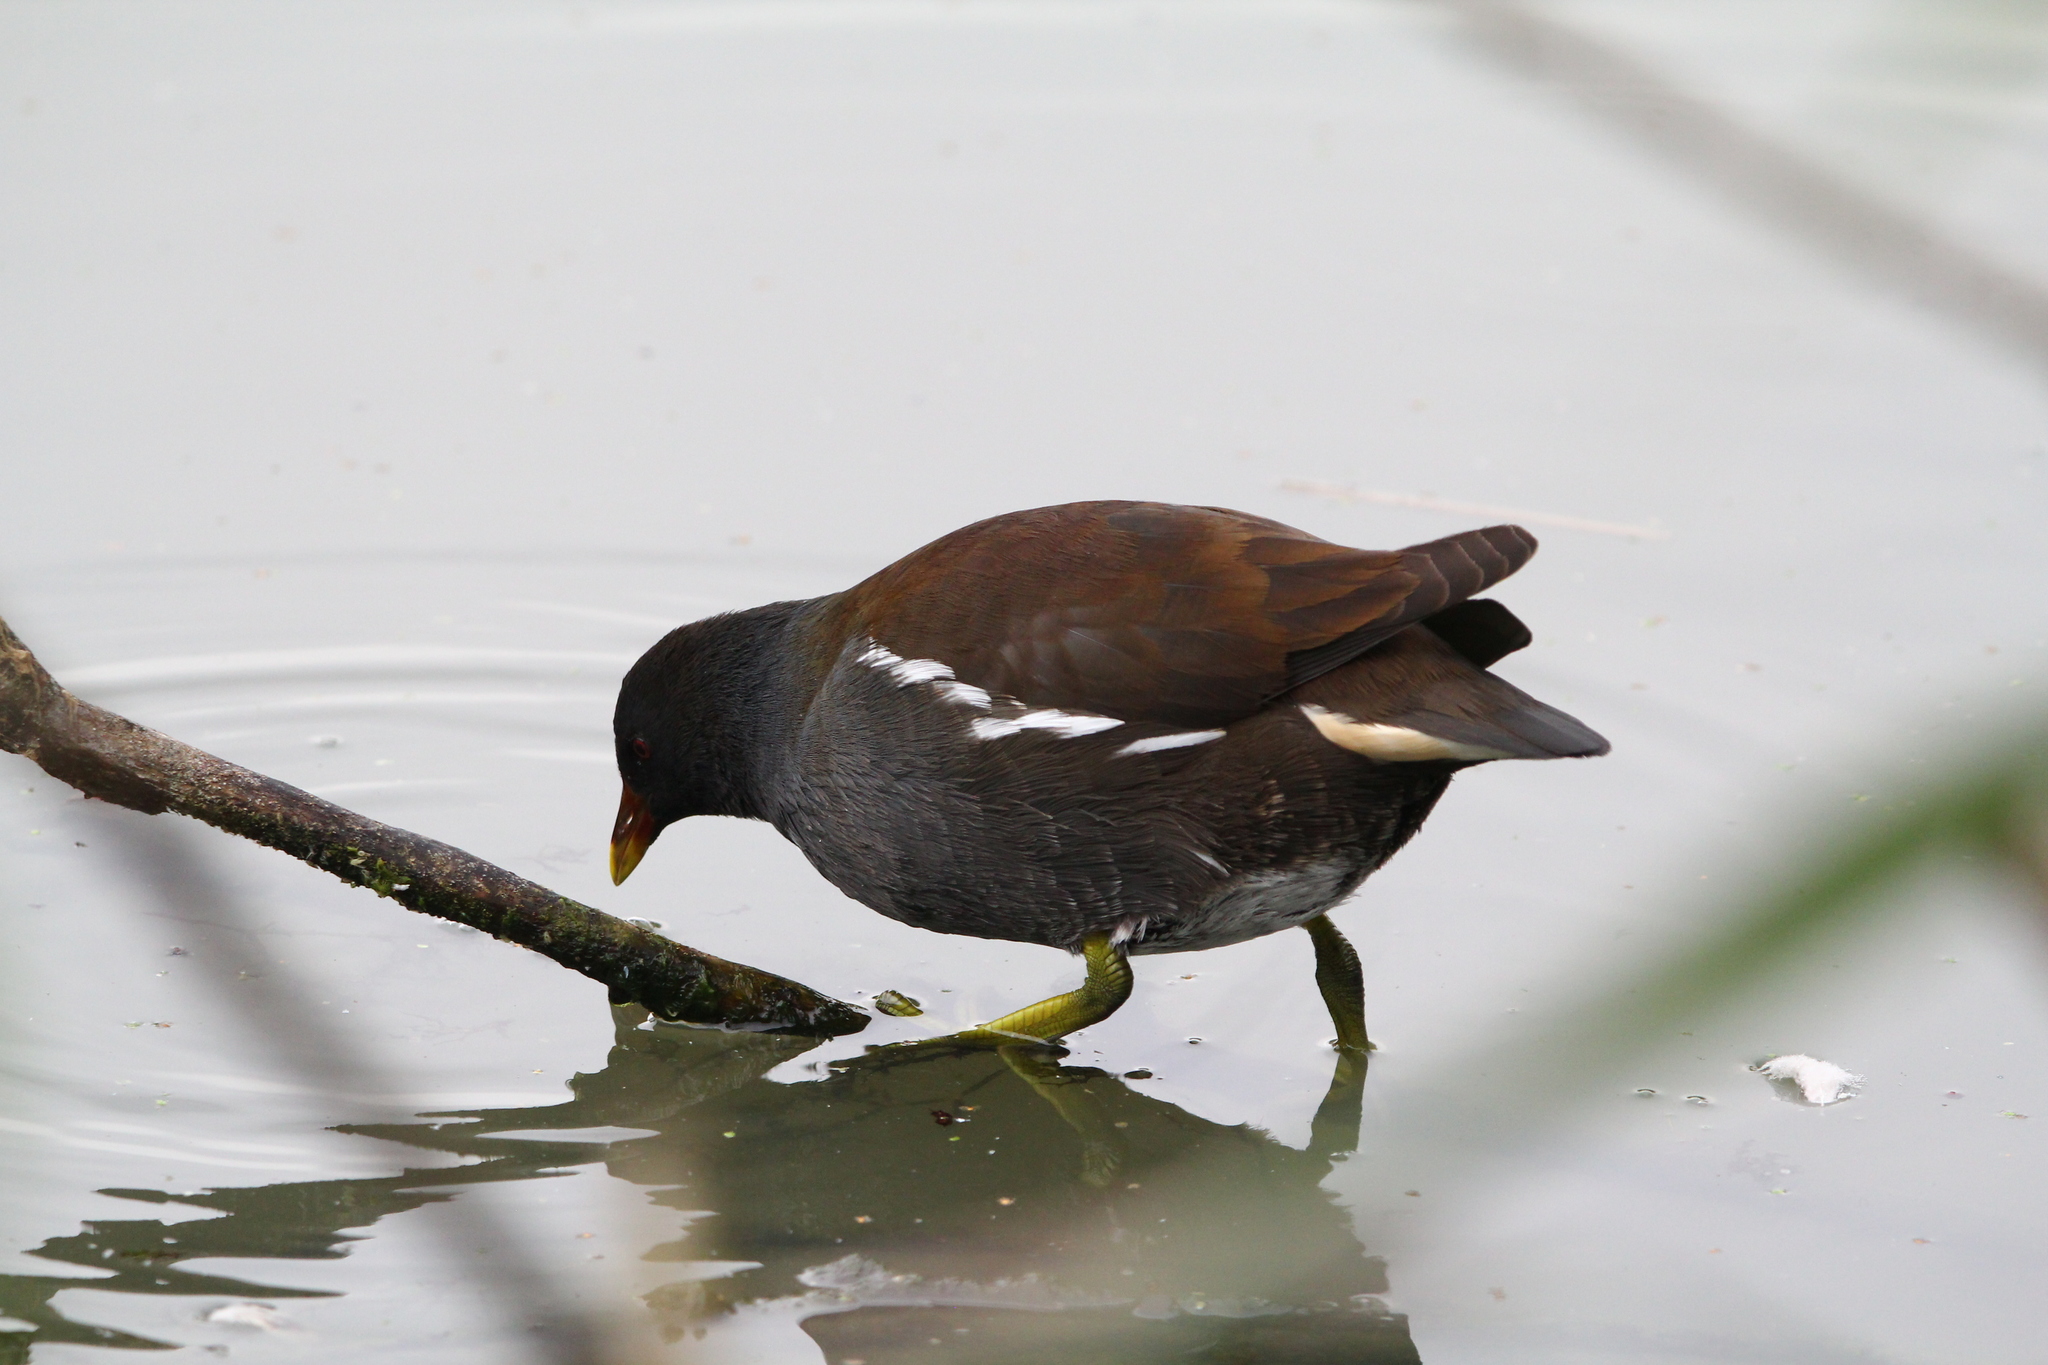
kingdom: Animalia
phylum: Chordata
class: Aves
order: Gruiformes
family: Rallidae
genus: Gallinula
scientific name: Gallinula chloropus
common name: Common moorhen
